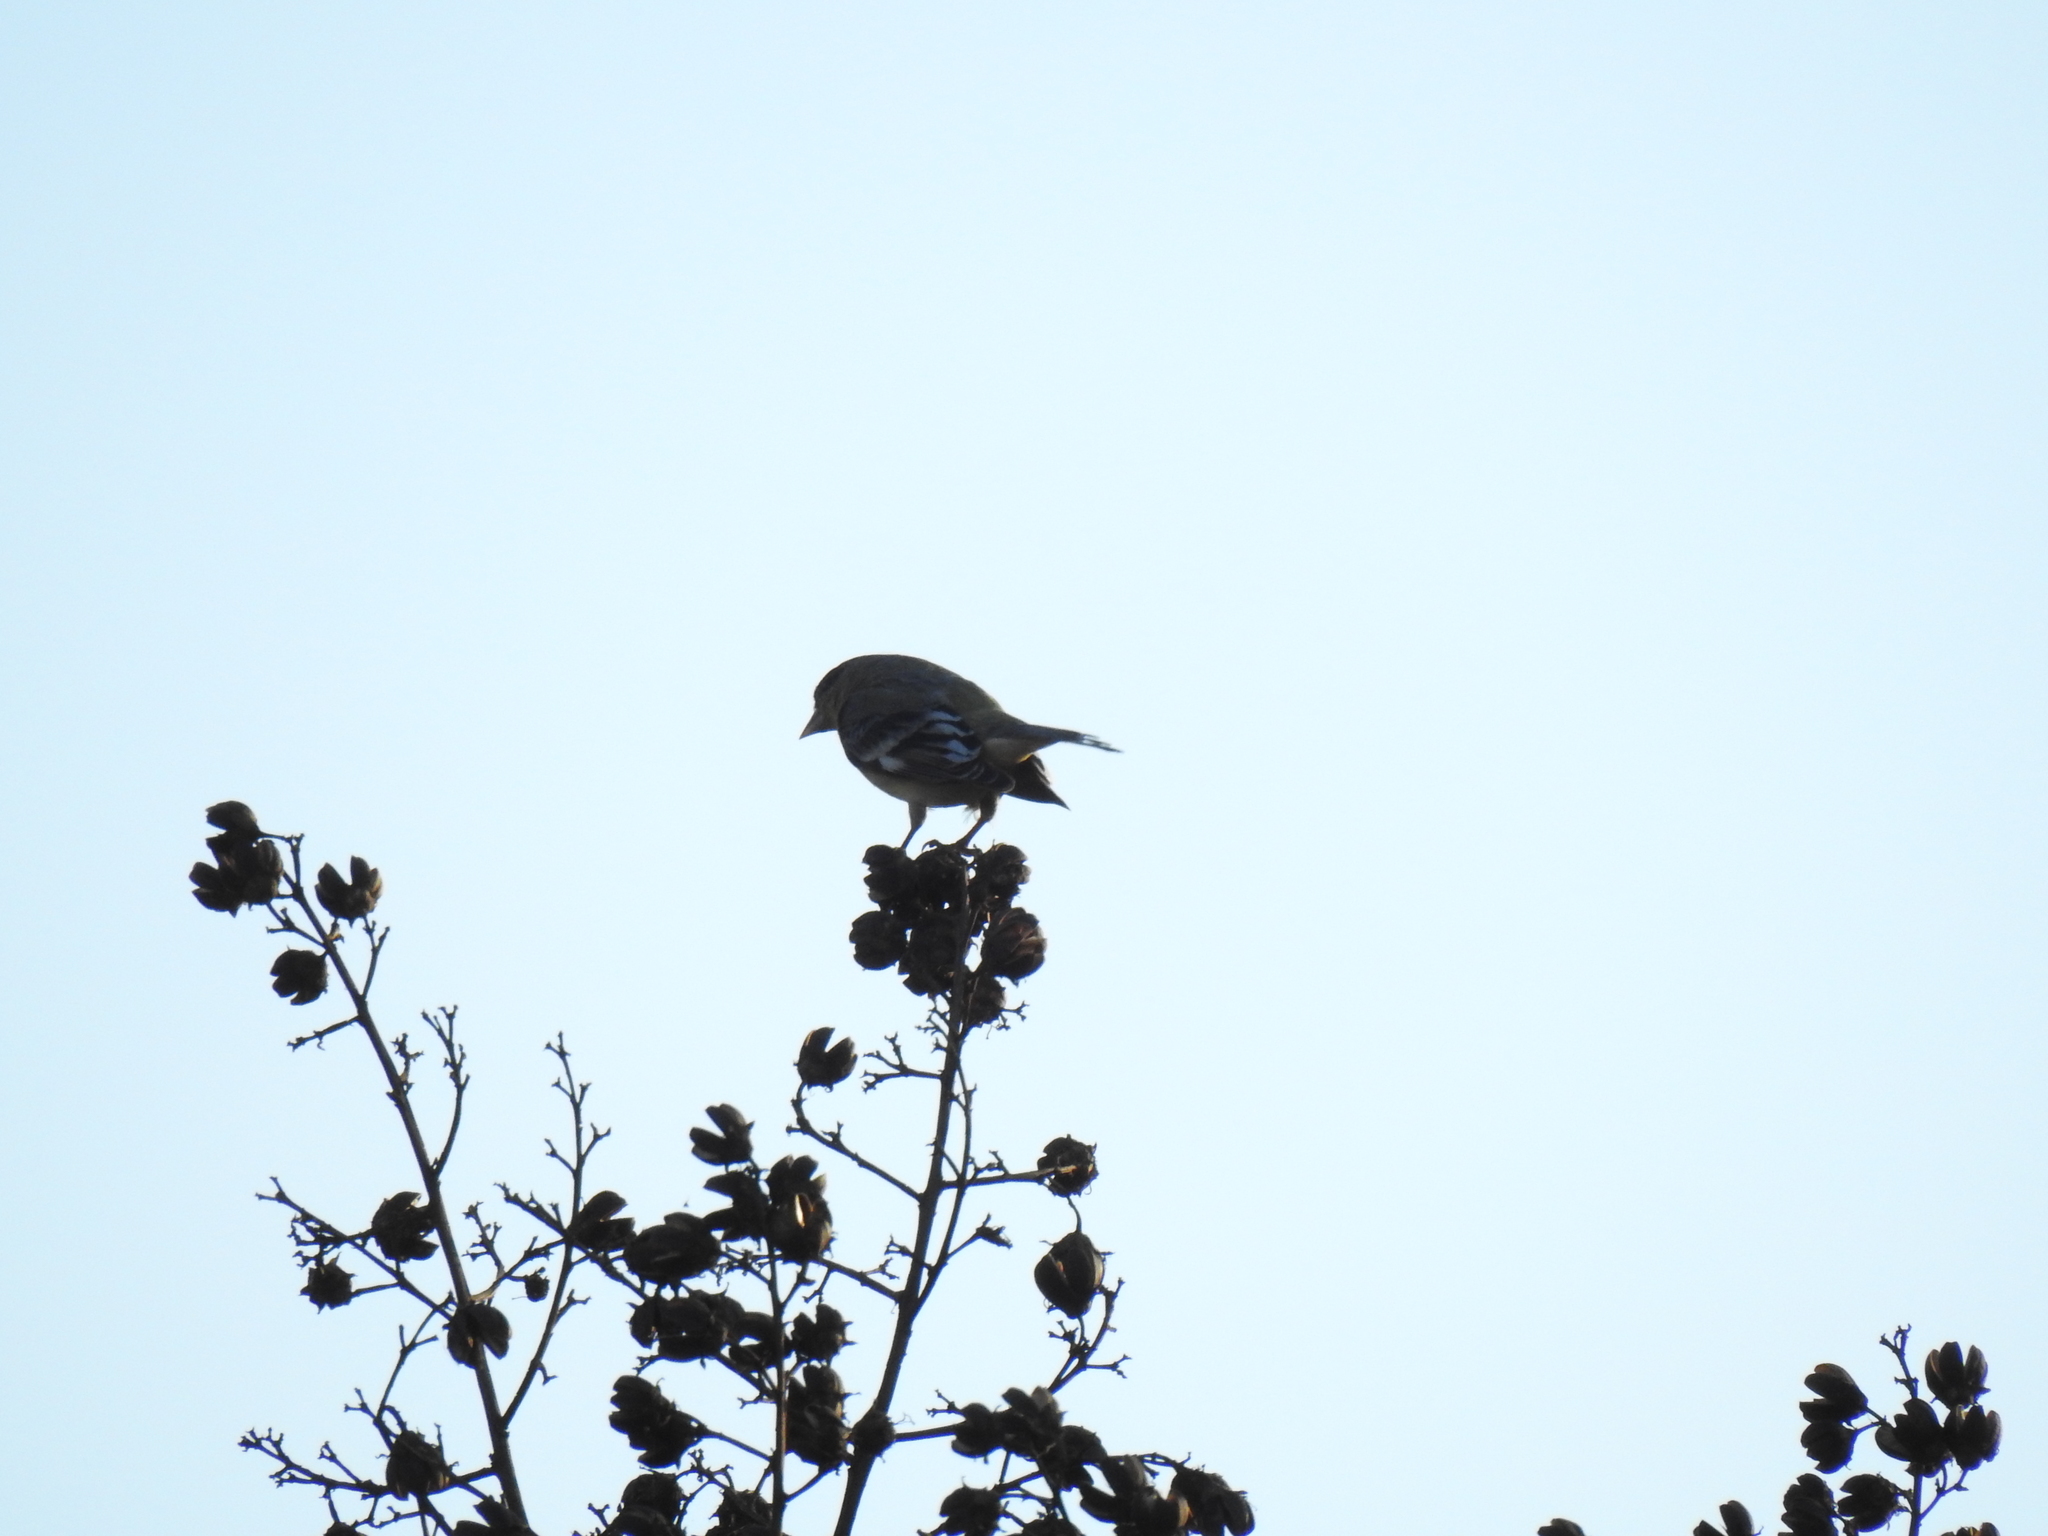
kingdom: Animalia
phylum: Chordata
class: Aves
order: Passeriformes
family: Fringillidae
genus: Spinus
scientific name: Spinus psaltria
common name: Lesser goldfinch
